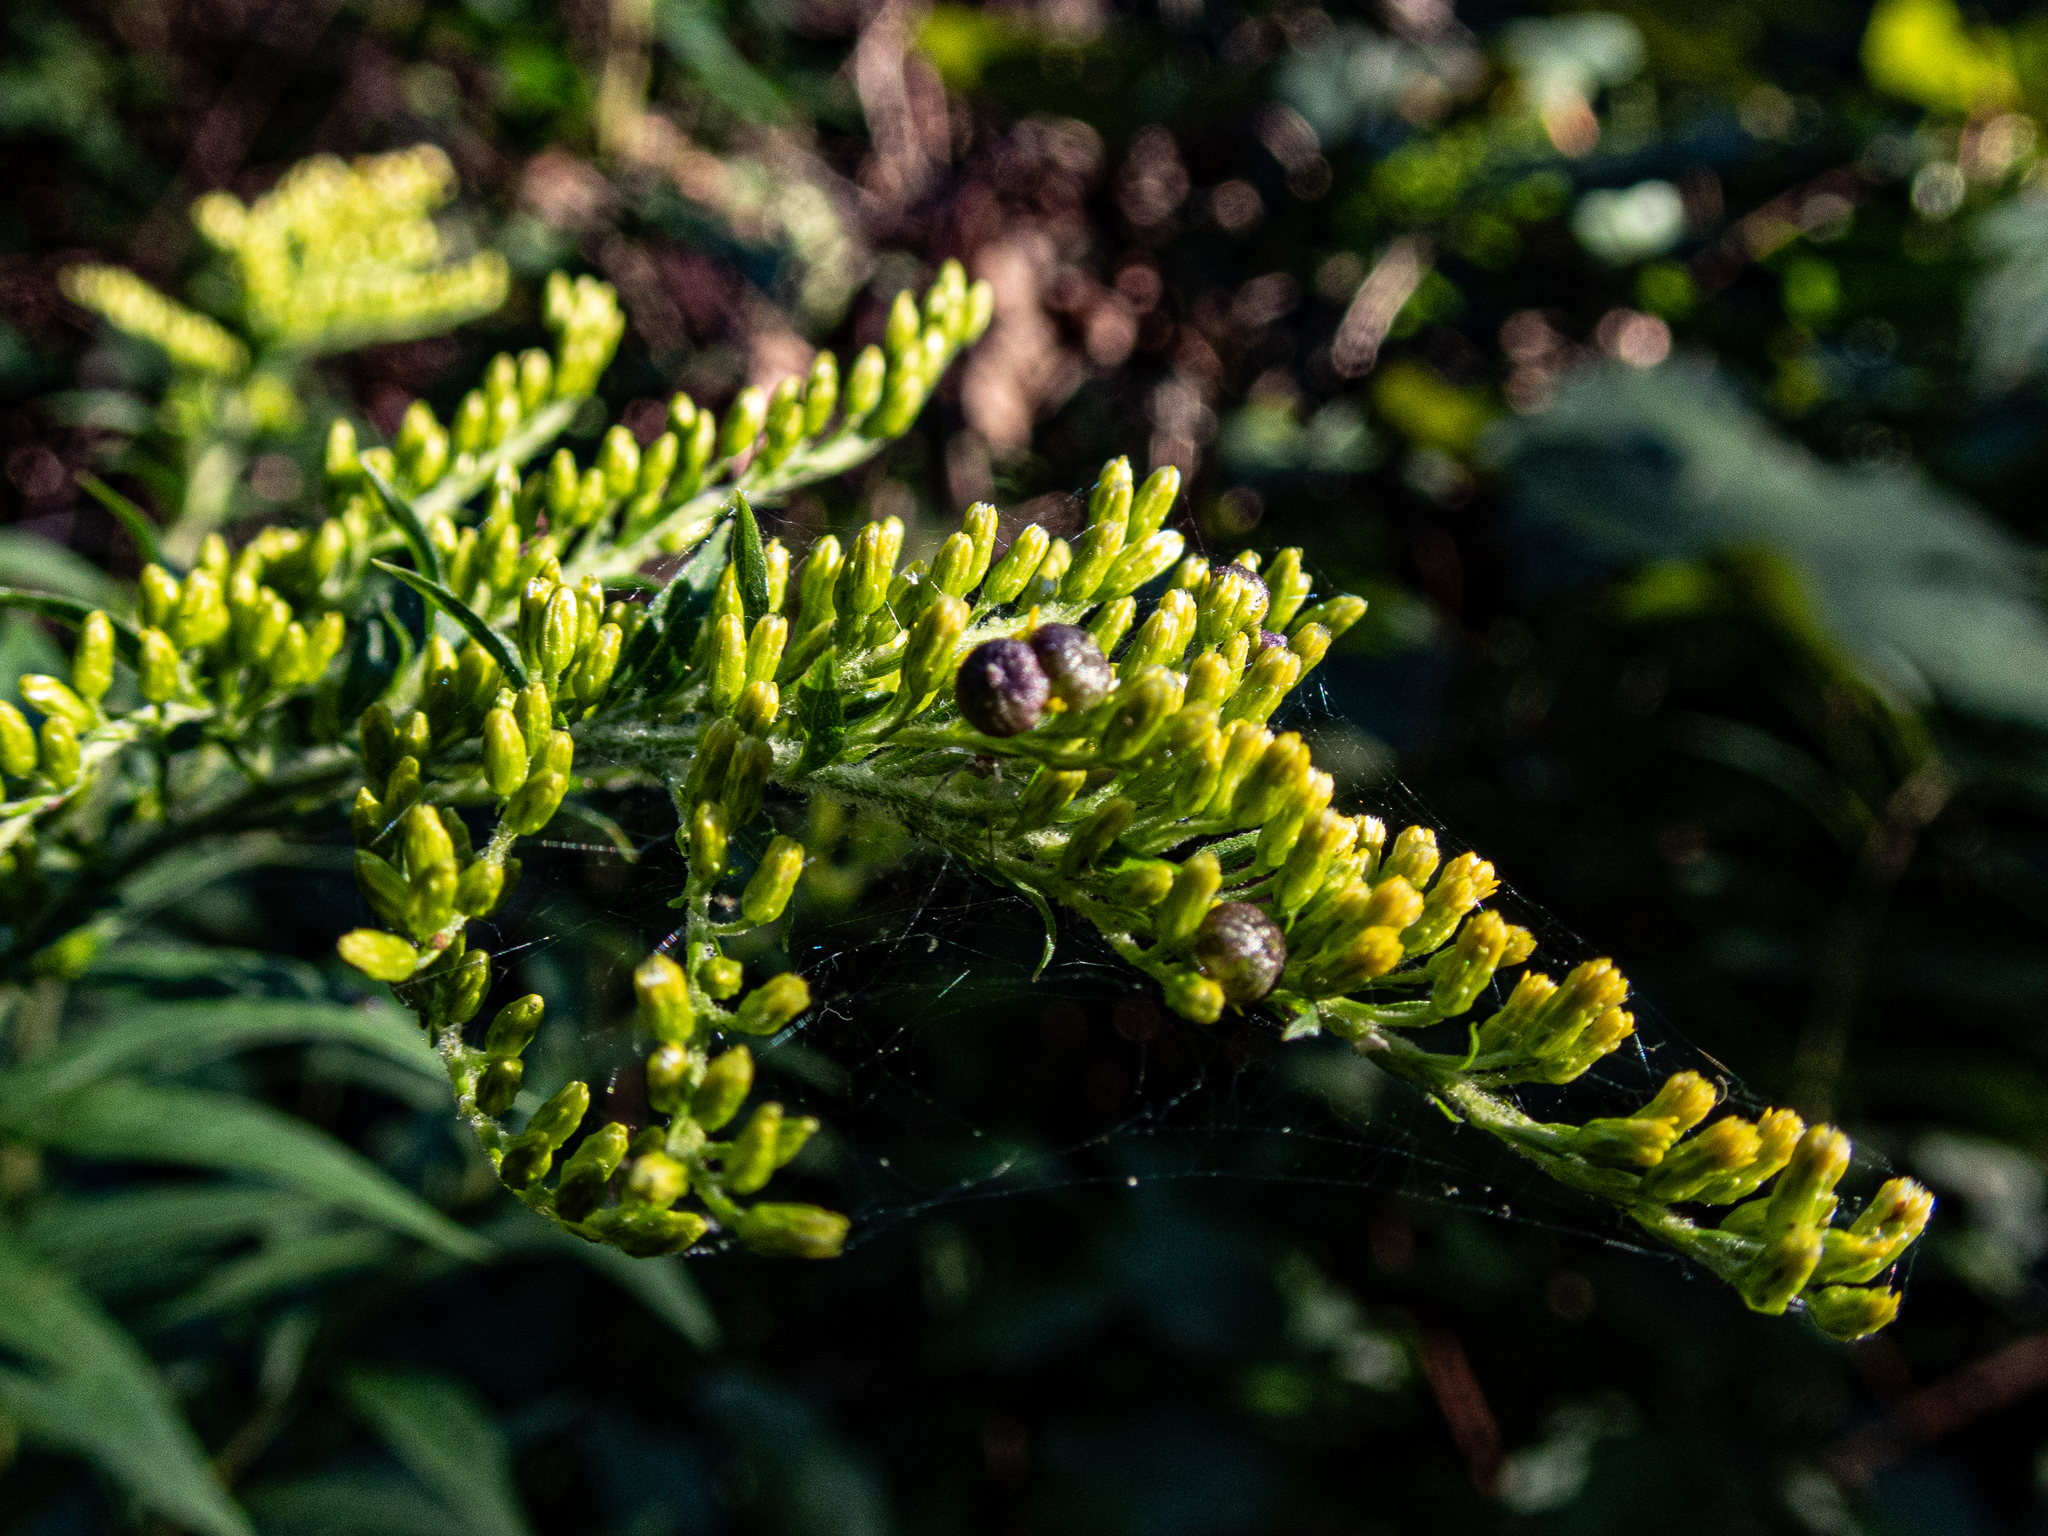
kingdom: Animalia
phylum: Arthropoda
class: Insecta
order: Diptera
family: Cecidomyiidae
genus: Schizomyia
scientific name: Schizomyia racemicola
